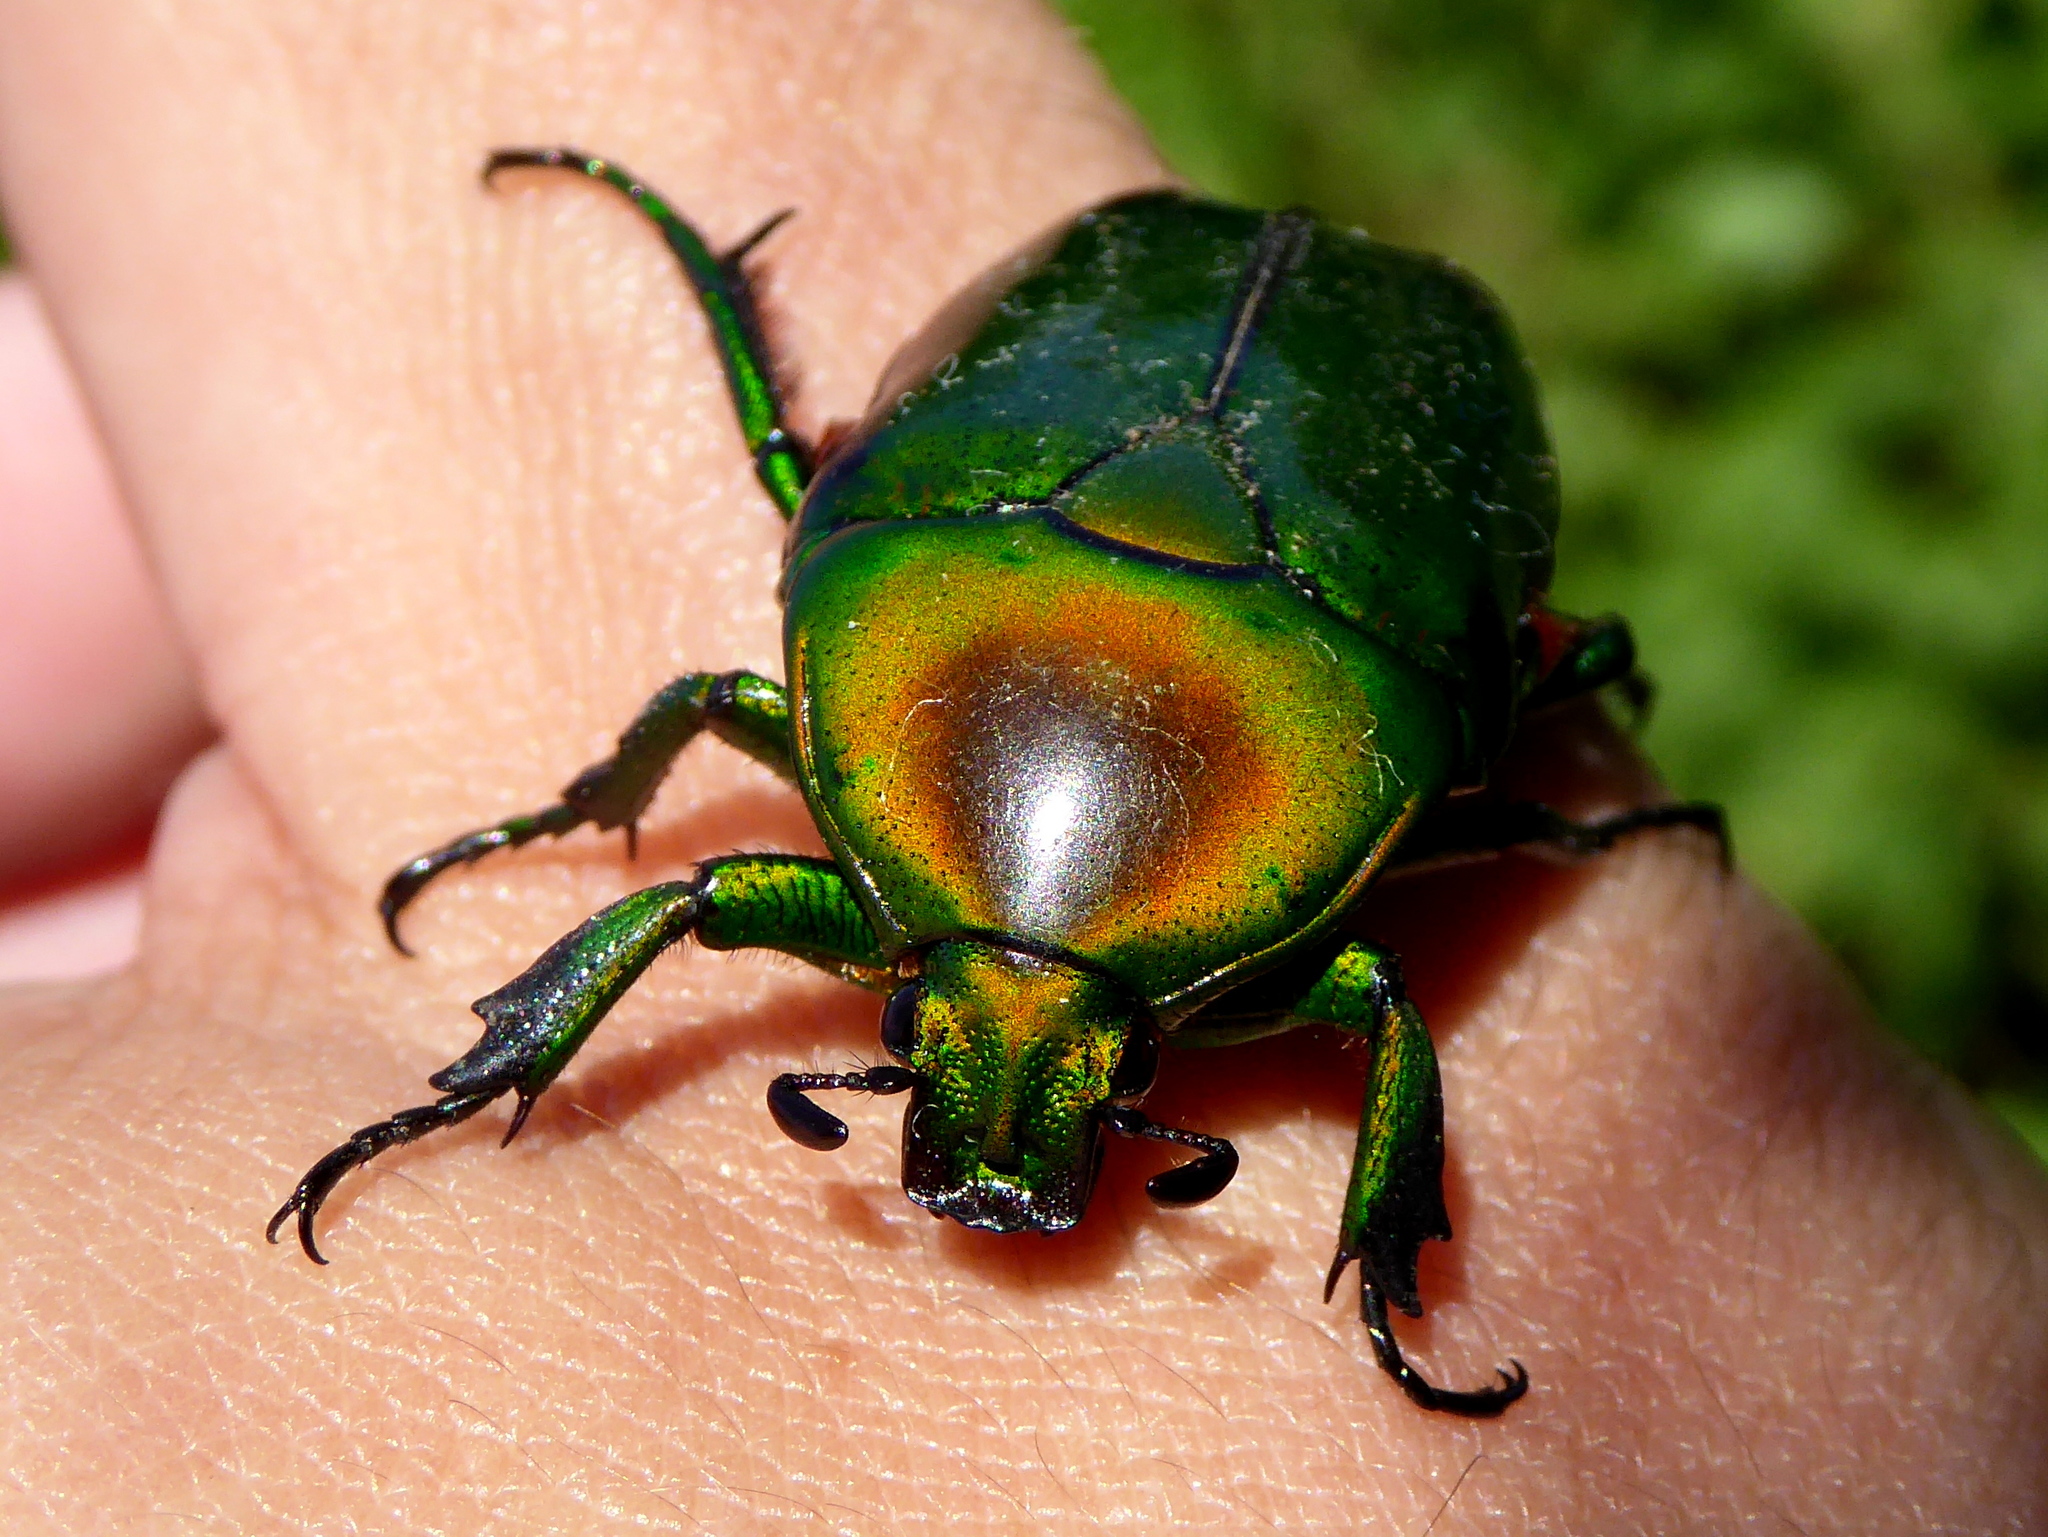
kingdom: Animalia
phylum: Arthropoda
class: Insecta
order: Coleoptera
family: Scarabaeidae
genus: Ptychodesthes
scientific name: Ptychodesthes Heterorrhina elegans
